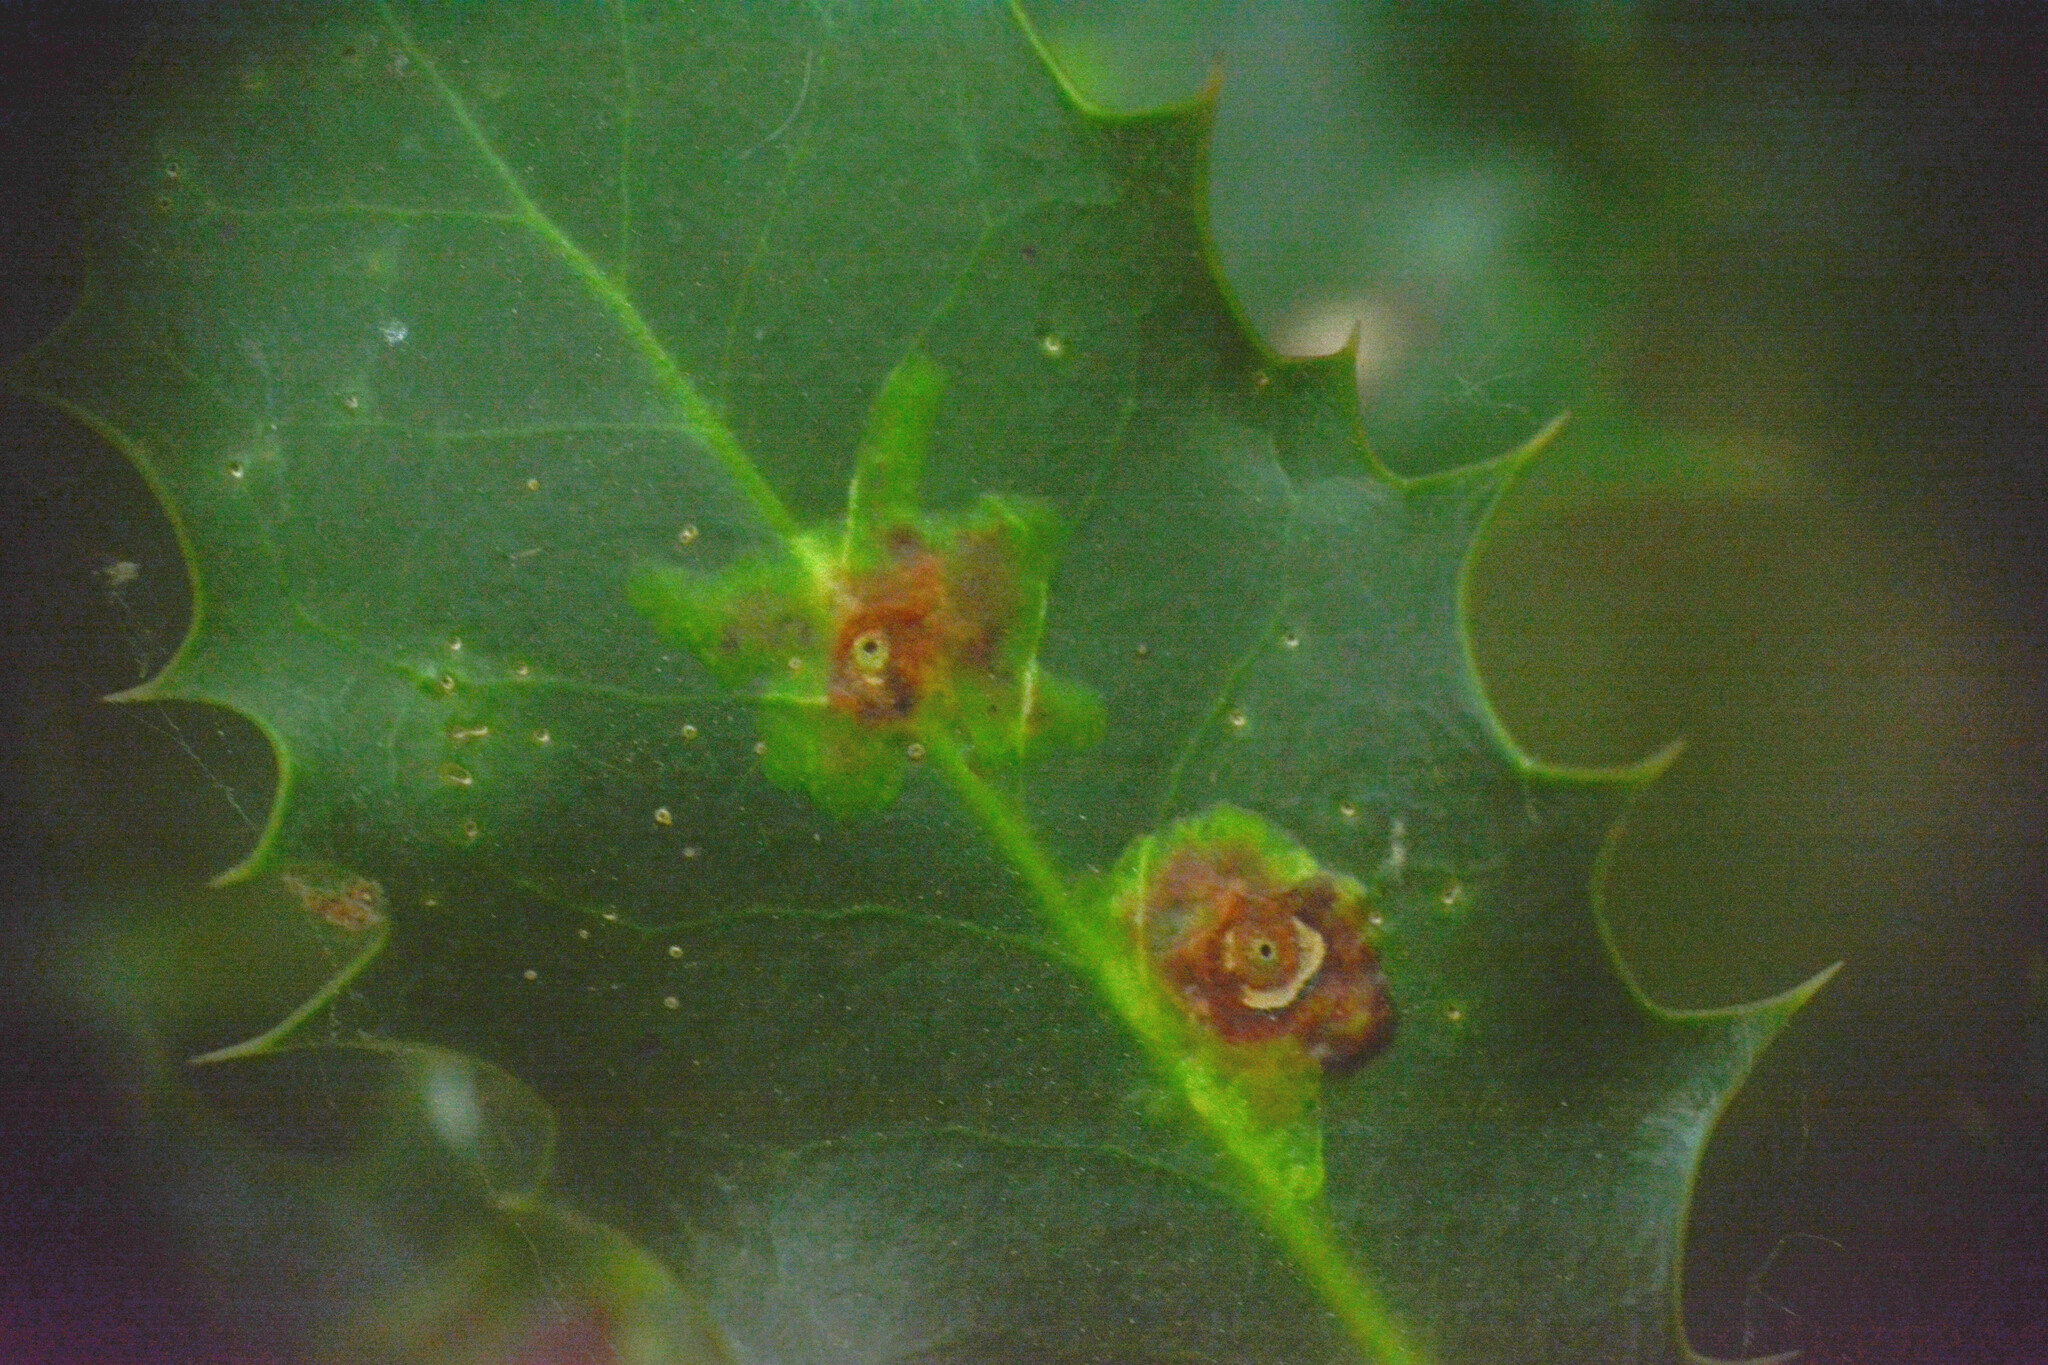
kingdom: Animalia
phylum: Arthropoda
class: Insecta
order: Diptera
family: Agromyzidae
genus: Phytomyza
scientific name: Phytomyza ilicis
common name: Holly leafminer
